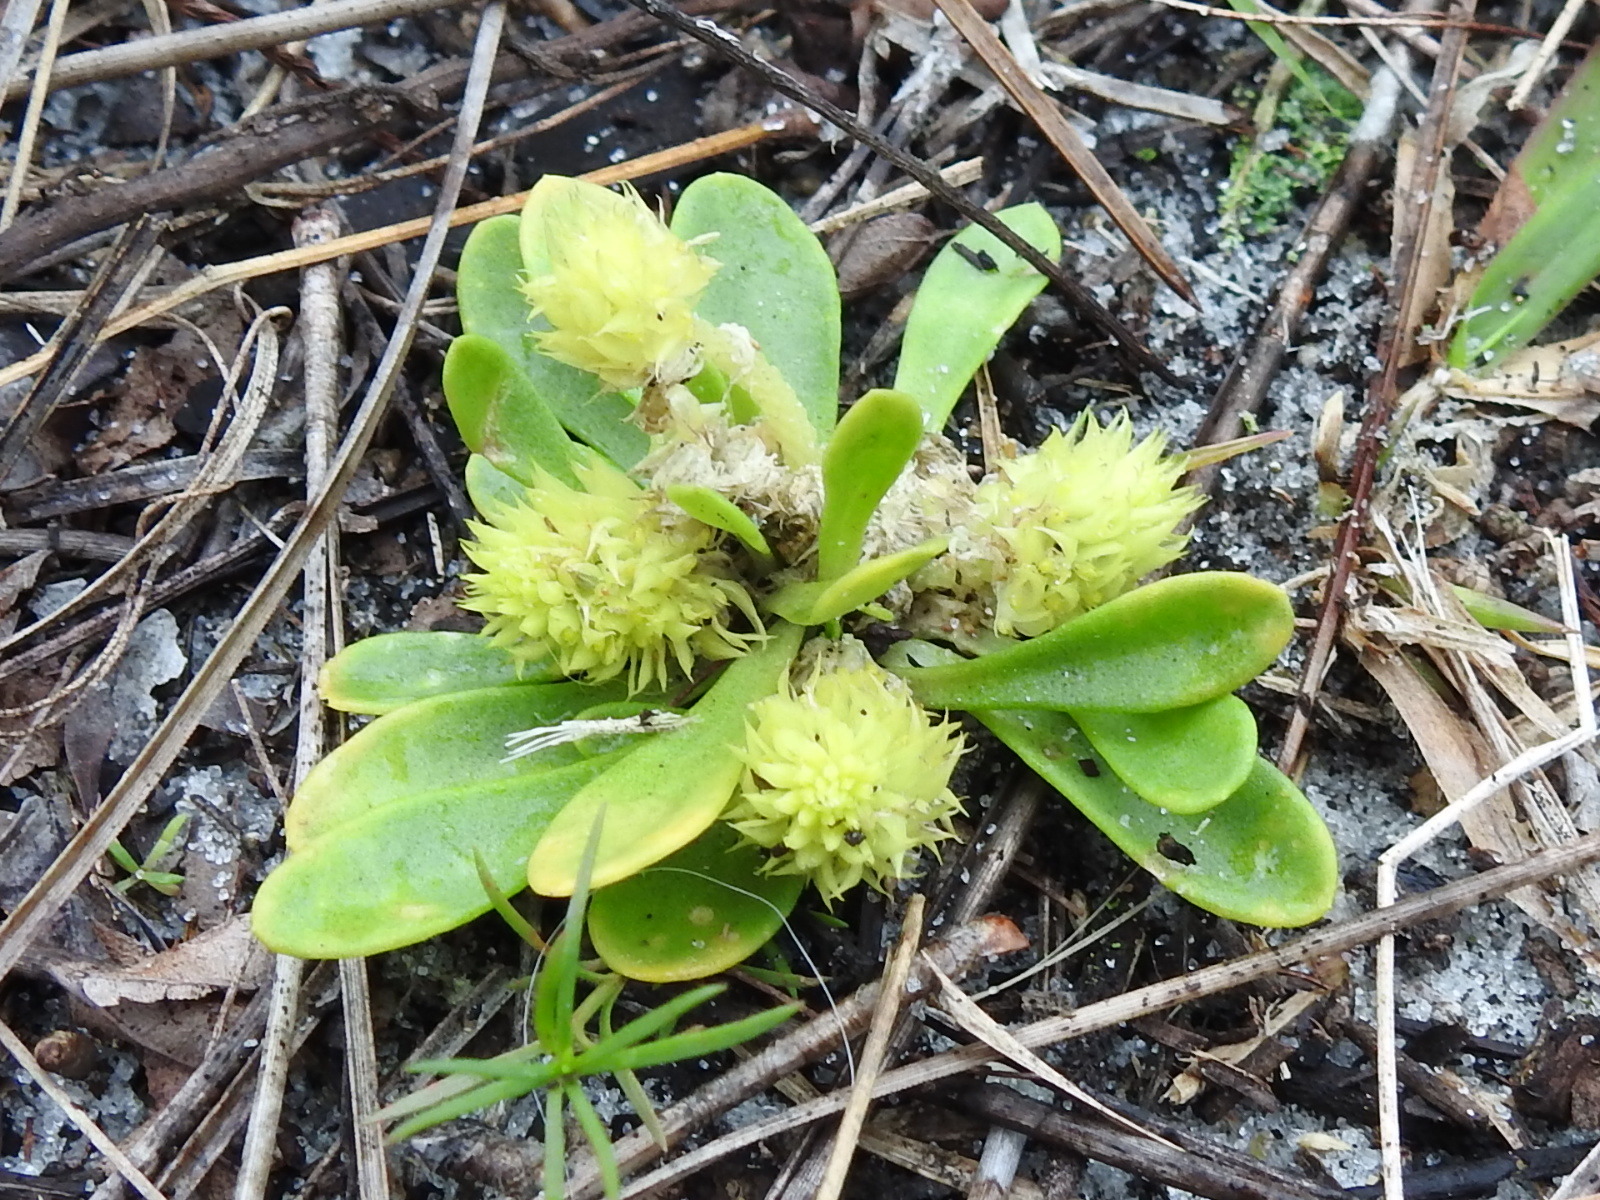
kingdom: Plantae
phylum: Tracheophyta
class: Magnoliopsida
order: Fabales
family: Polygalaceae
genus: Polygala
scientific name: Polygala nana
